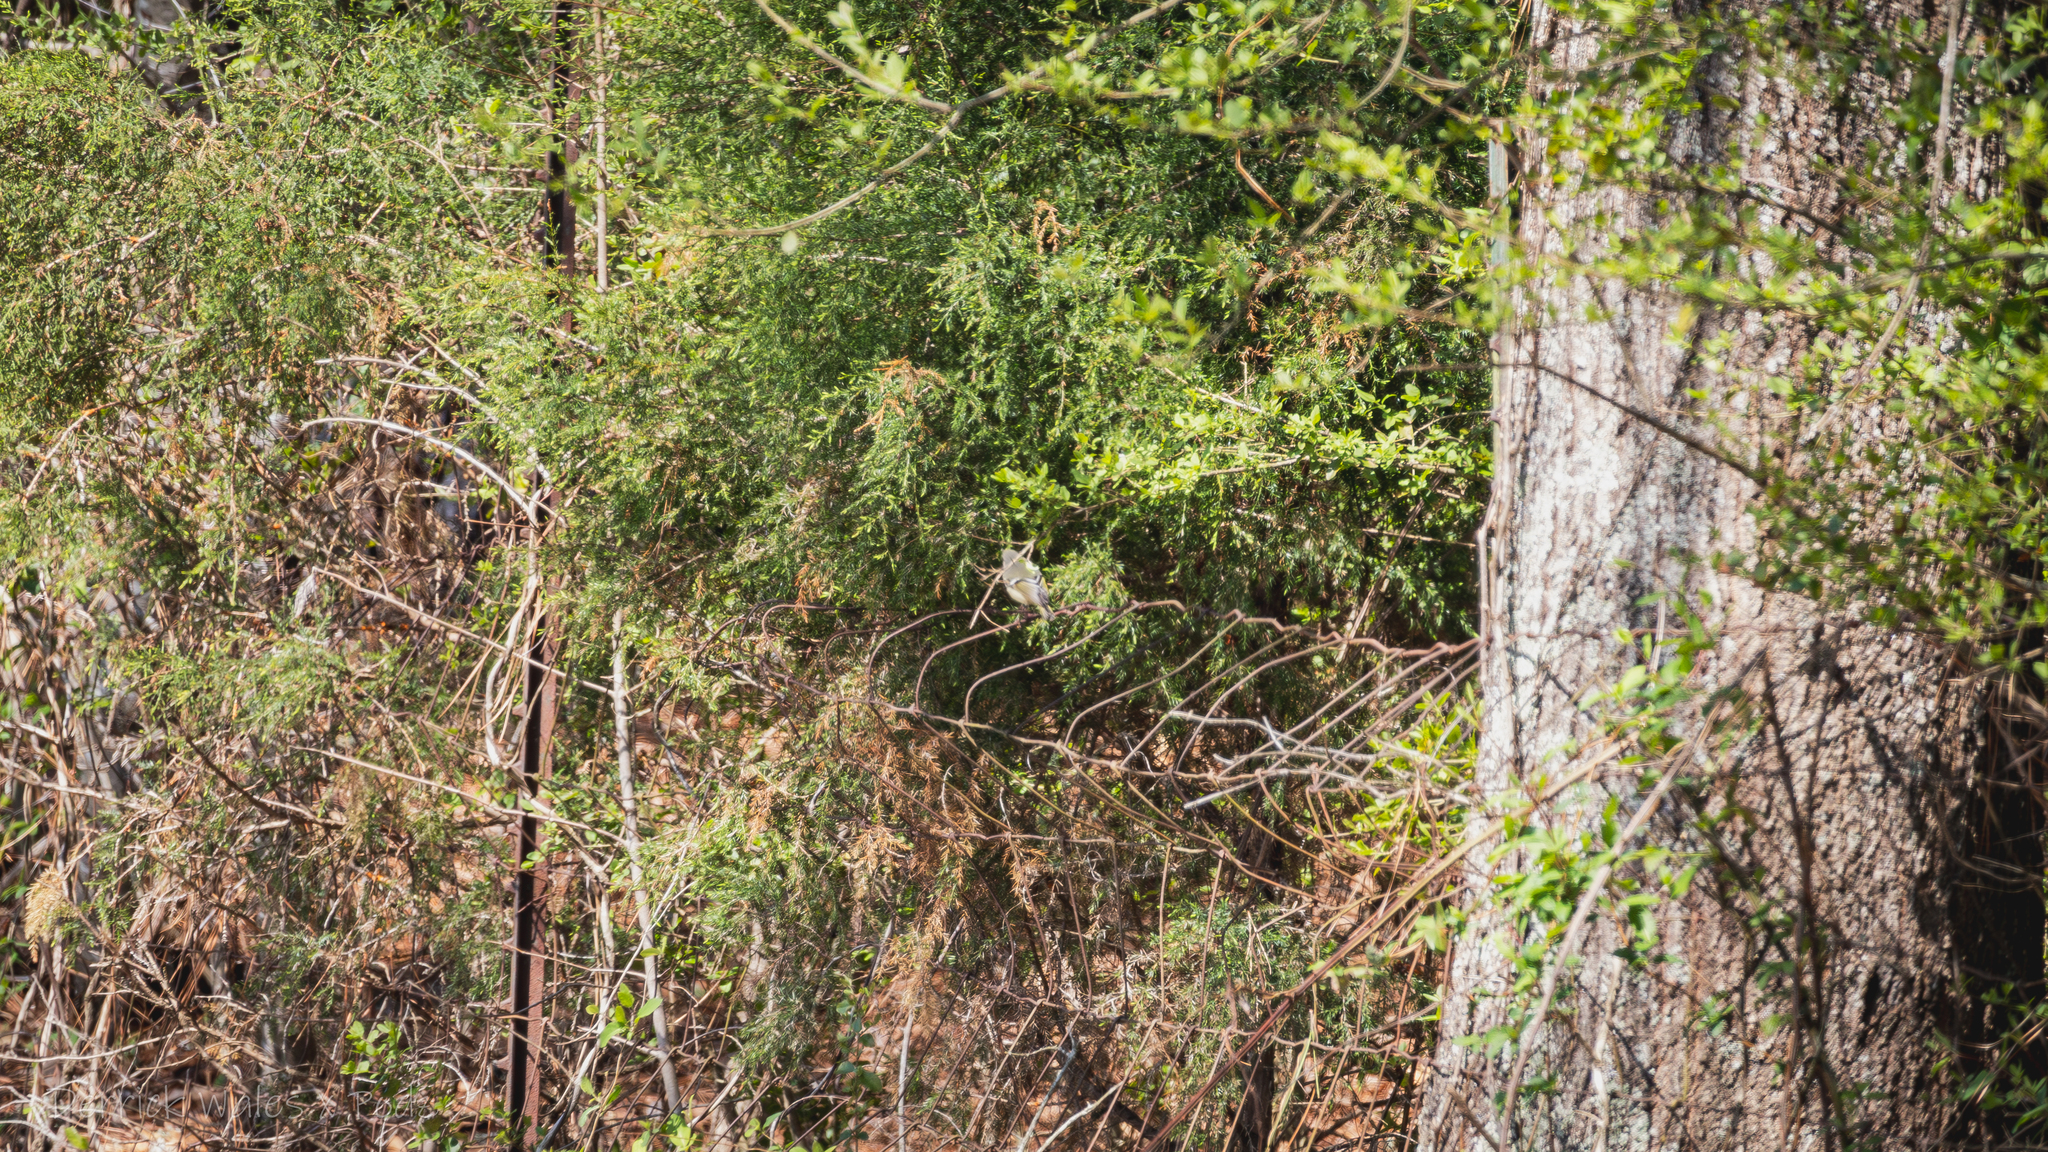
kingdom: Animalia
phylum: Chordata
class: Aves
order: Passeriformes
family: Regulidae
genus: Regulus
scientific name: Regulus calendula
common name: Ruby-crowned kinglet
